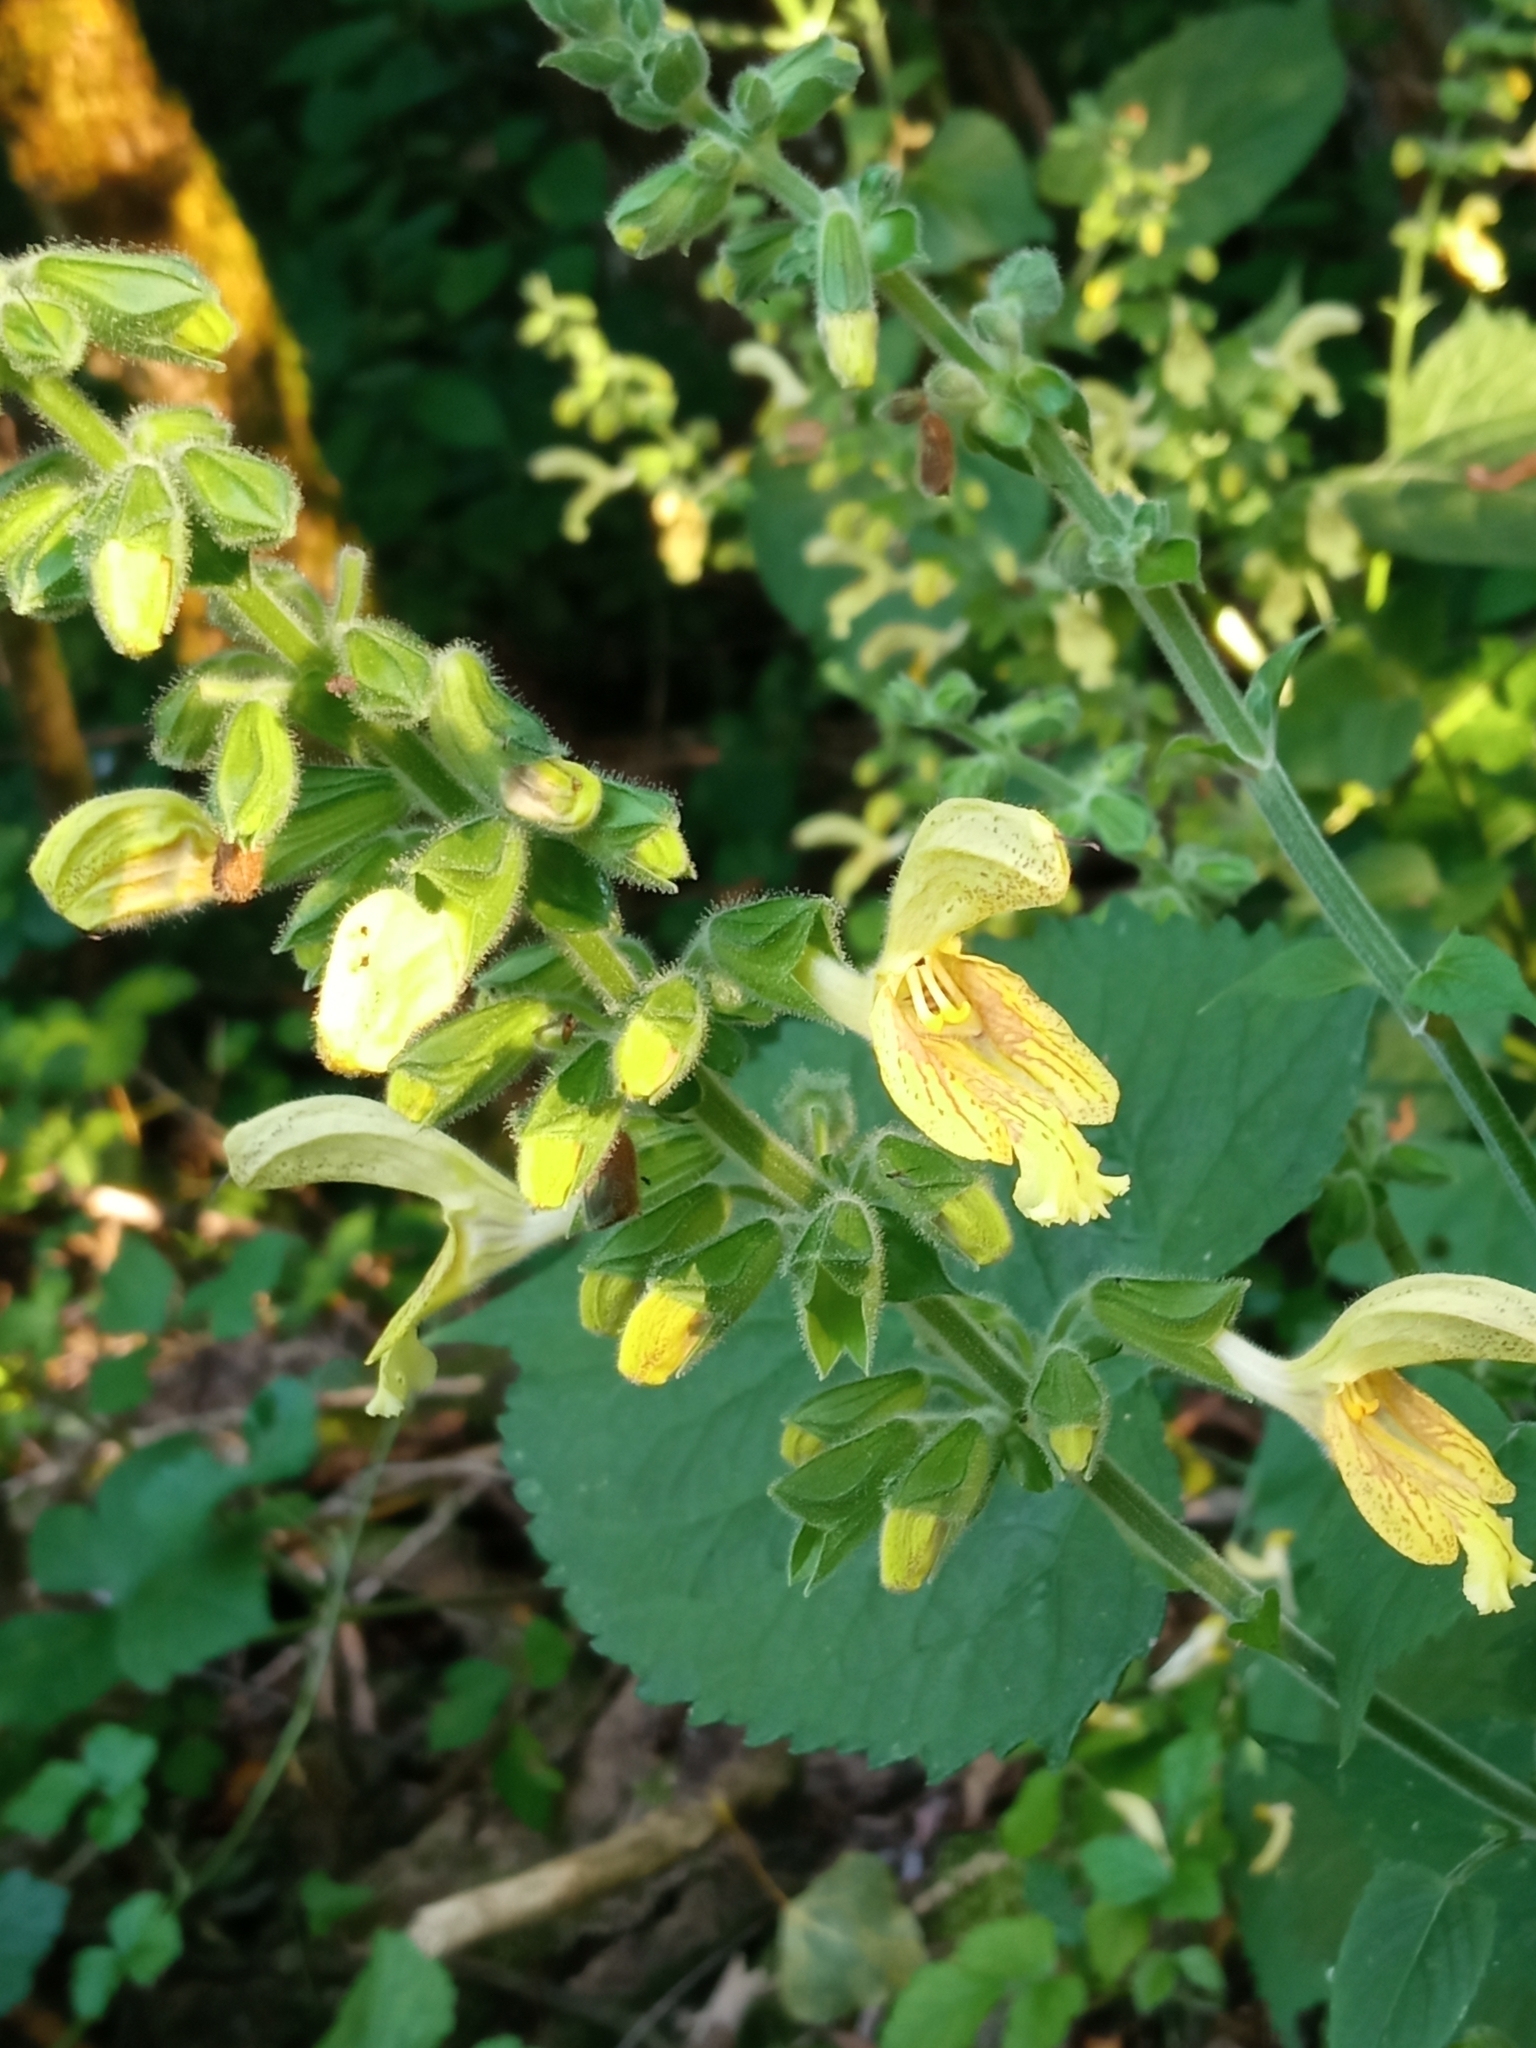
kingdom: Plantae
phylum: Tracheophyta
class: Magnoliopsida
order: Lamiales
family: Lamiaceae
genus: Salvia
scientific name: Salvia glutinosa
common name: Sticky clary
